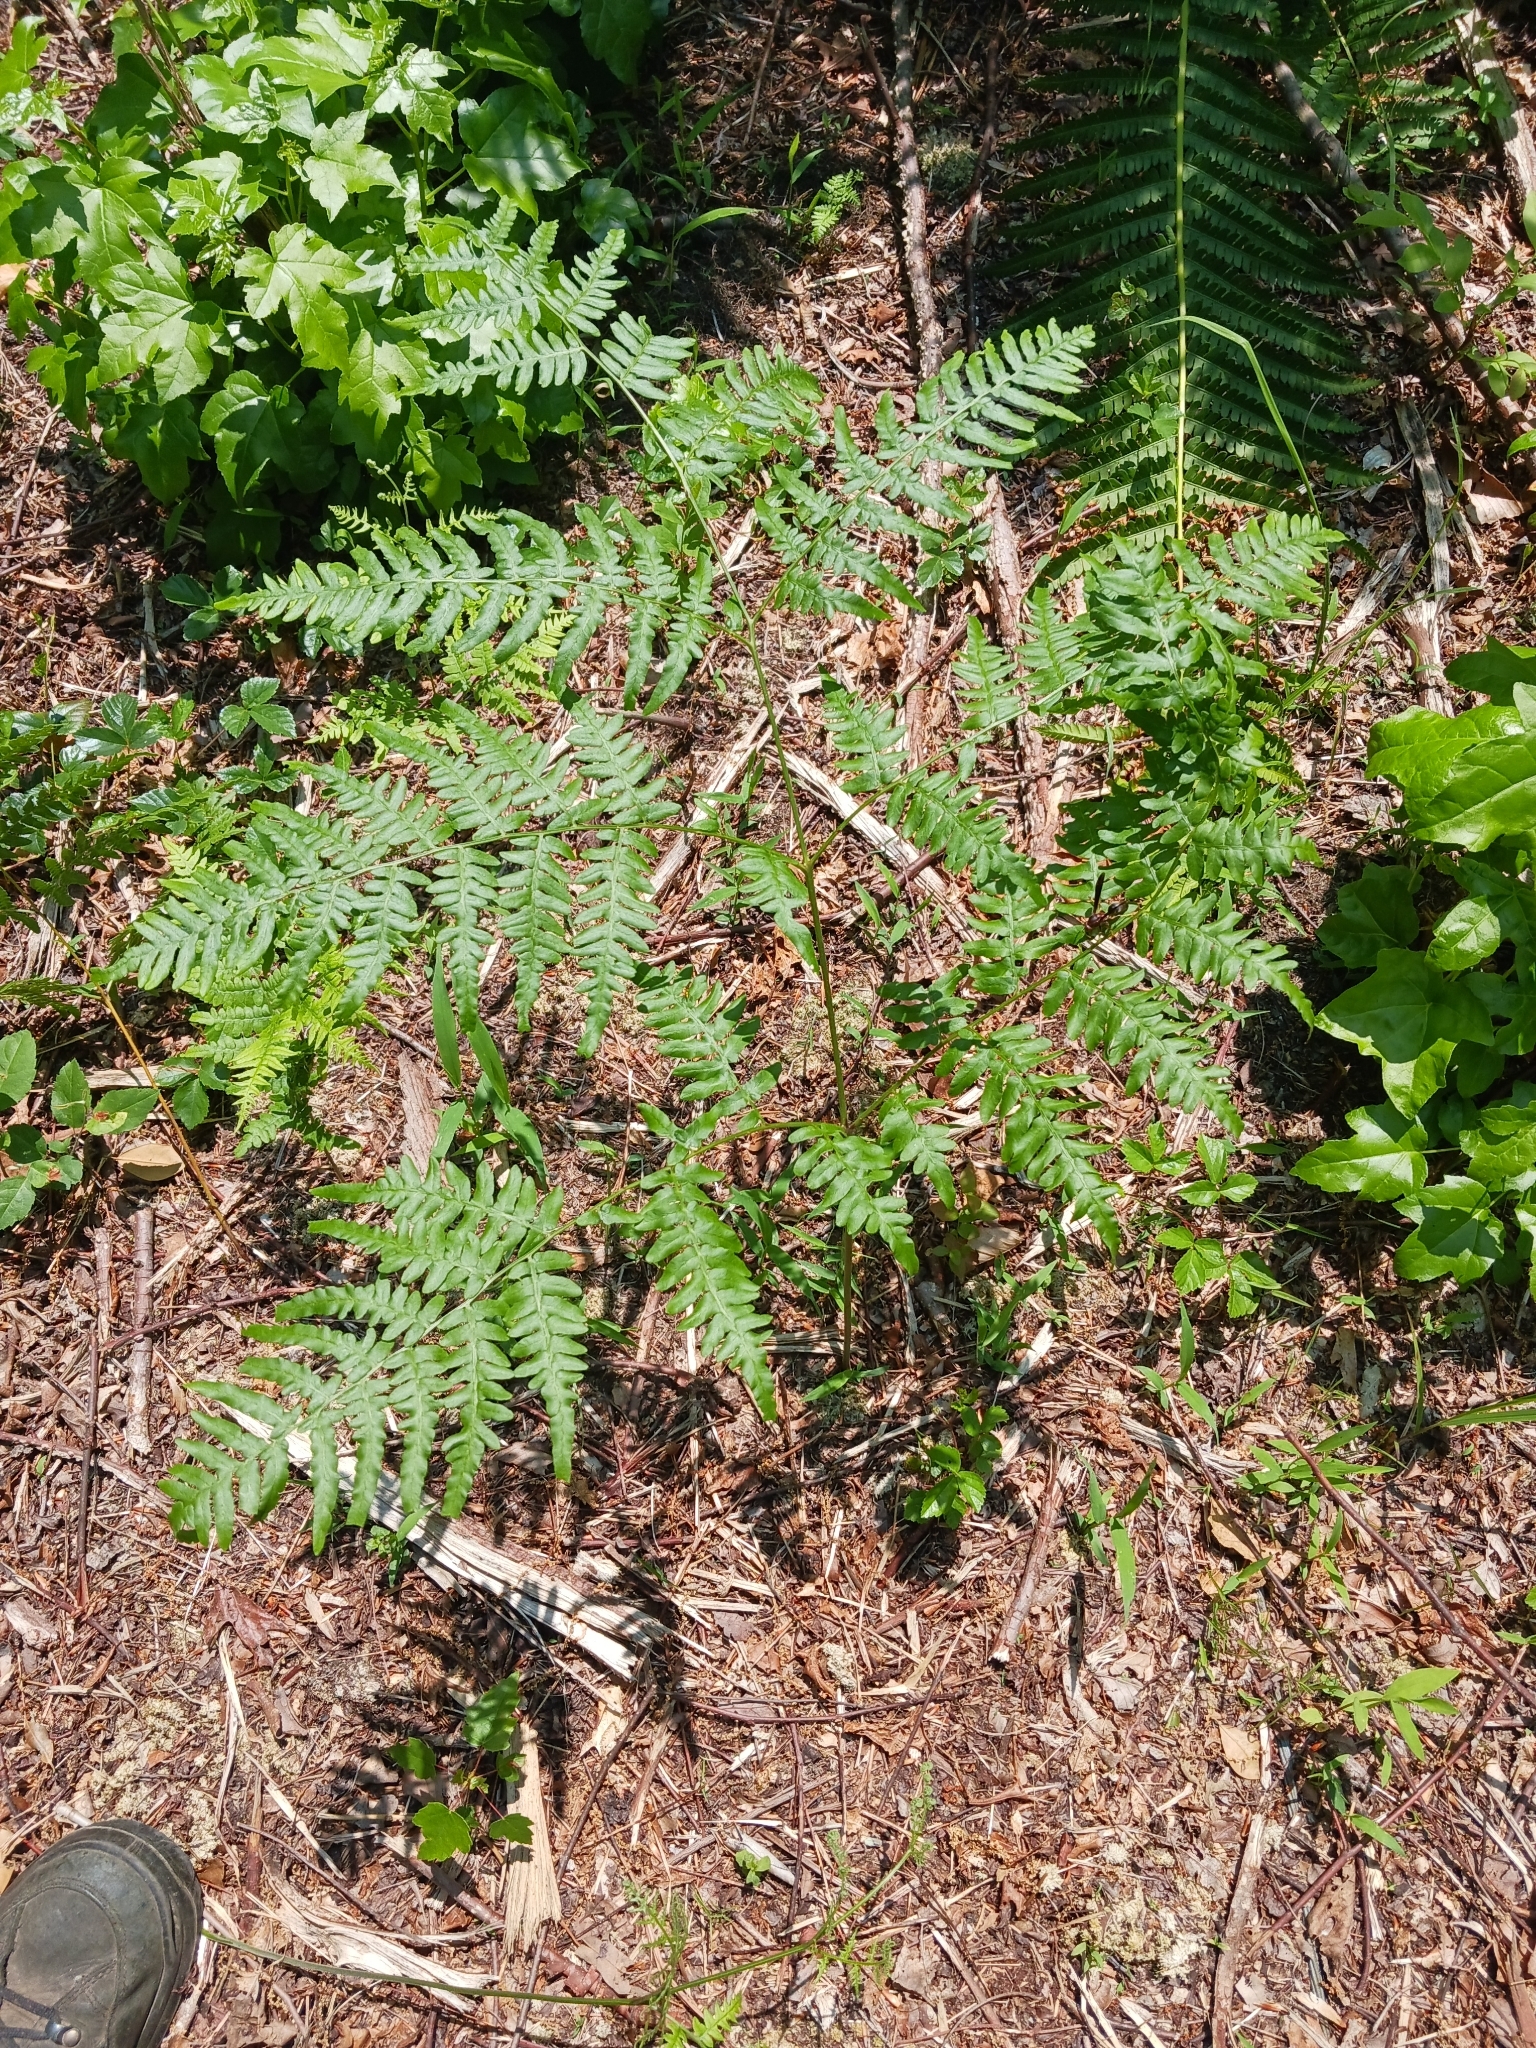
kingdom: Plantae
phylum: Tracheophyta
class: Polypodiopsida
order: Polypodiales
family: Dennstaedtiaceae
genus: Pteridium
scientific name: Pteridium aquilinum
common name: Bracken
